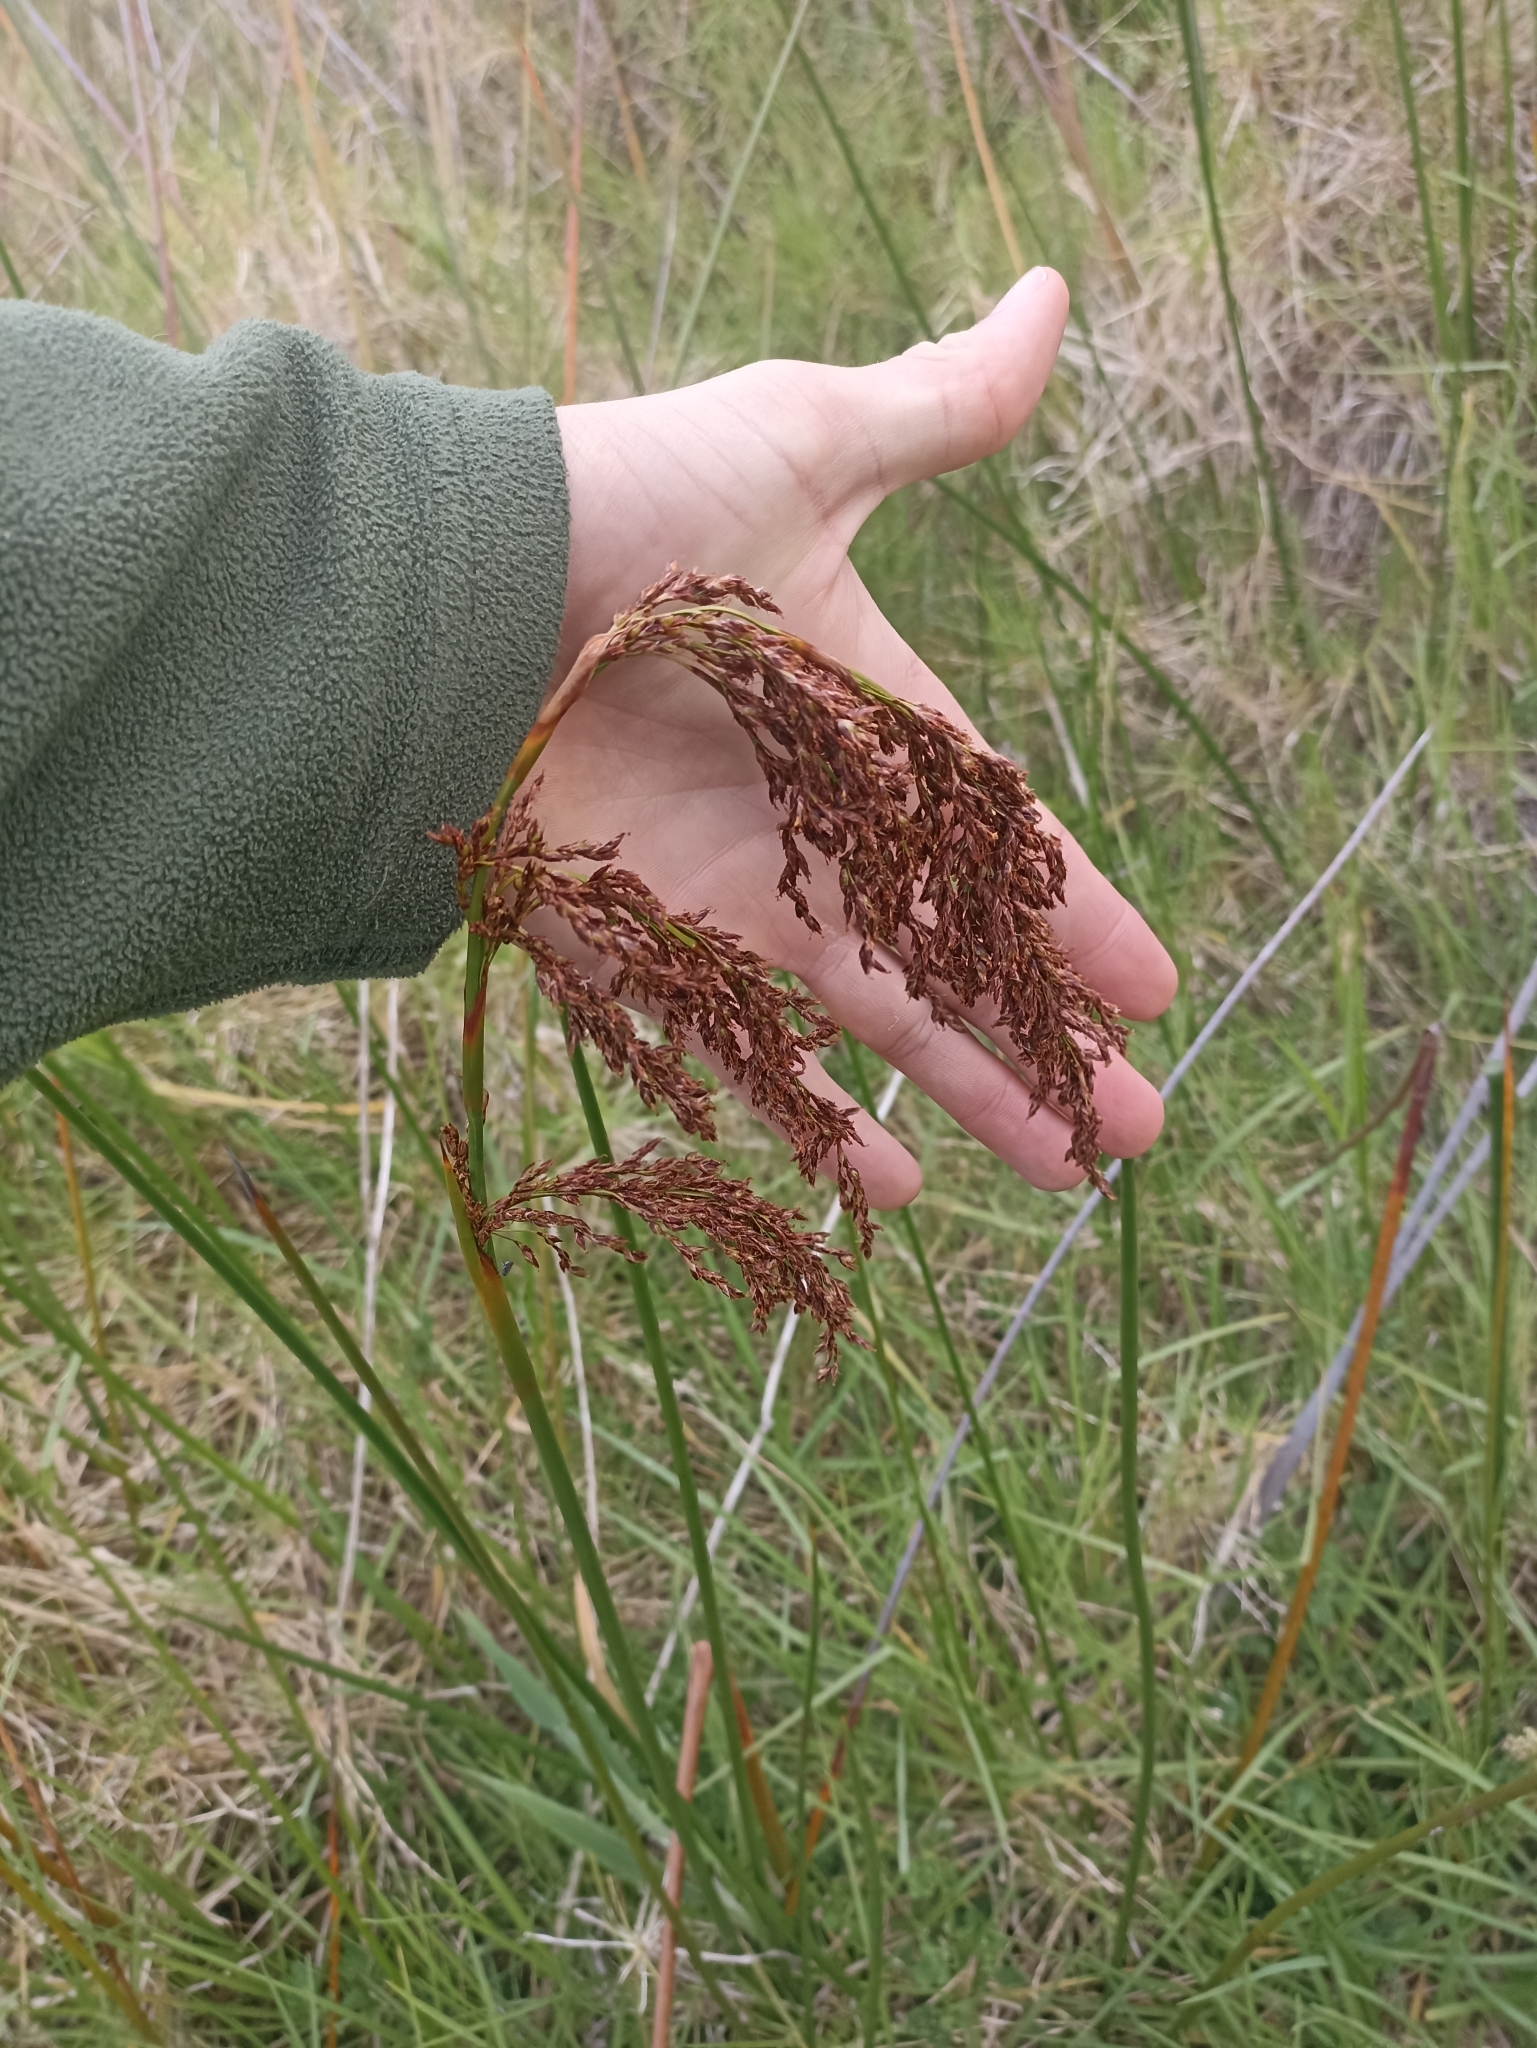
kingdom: Plantae
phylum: Tracheophyta
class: Liliopsida
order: Poales
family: Cyperaceae
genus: Machaerina
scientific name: Machaerina articulata
